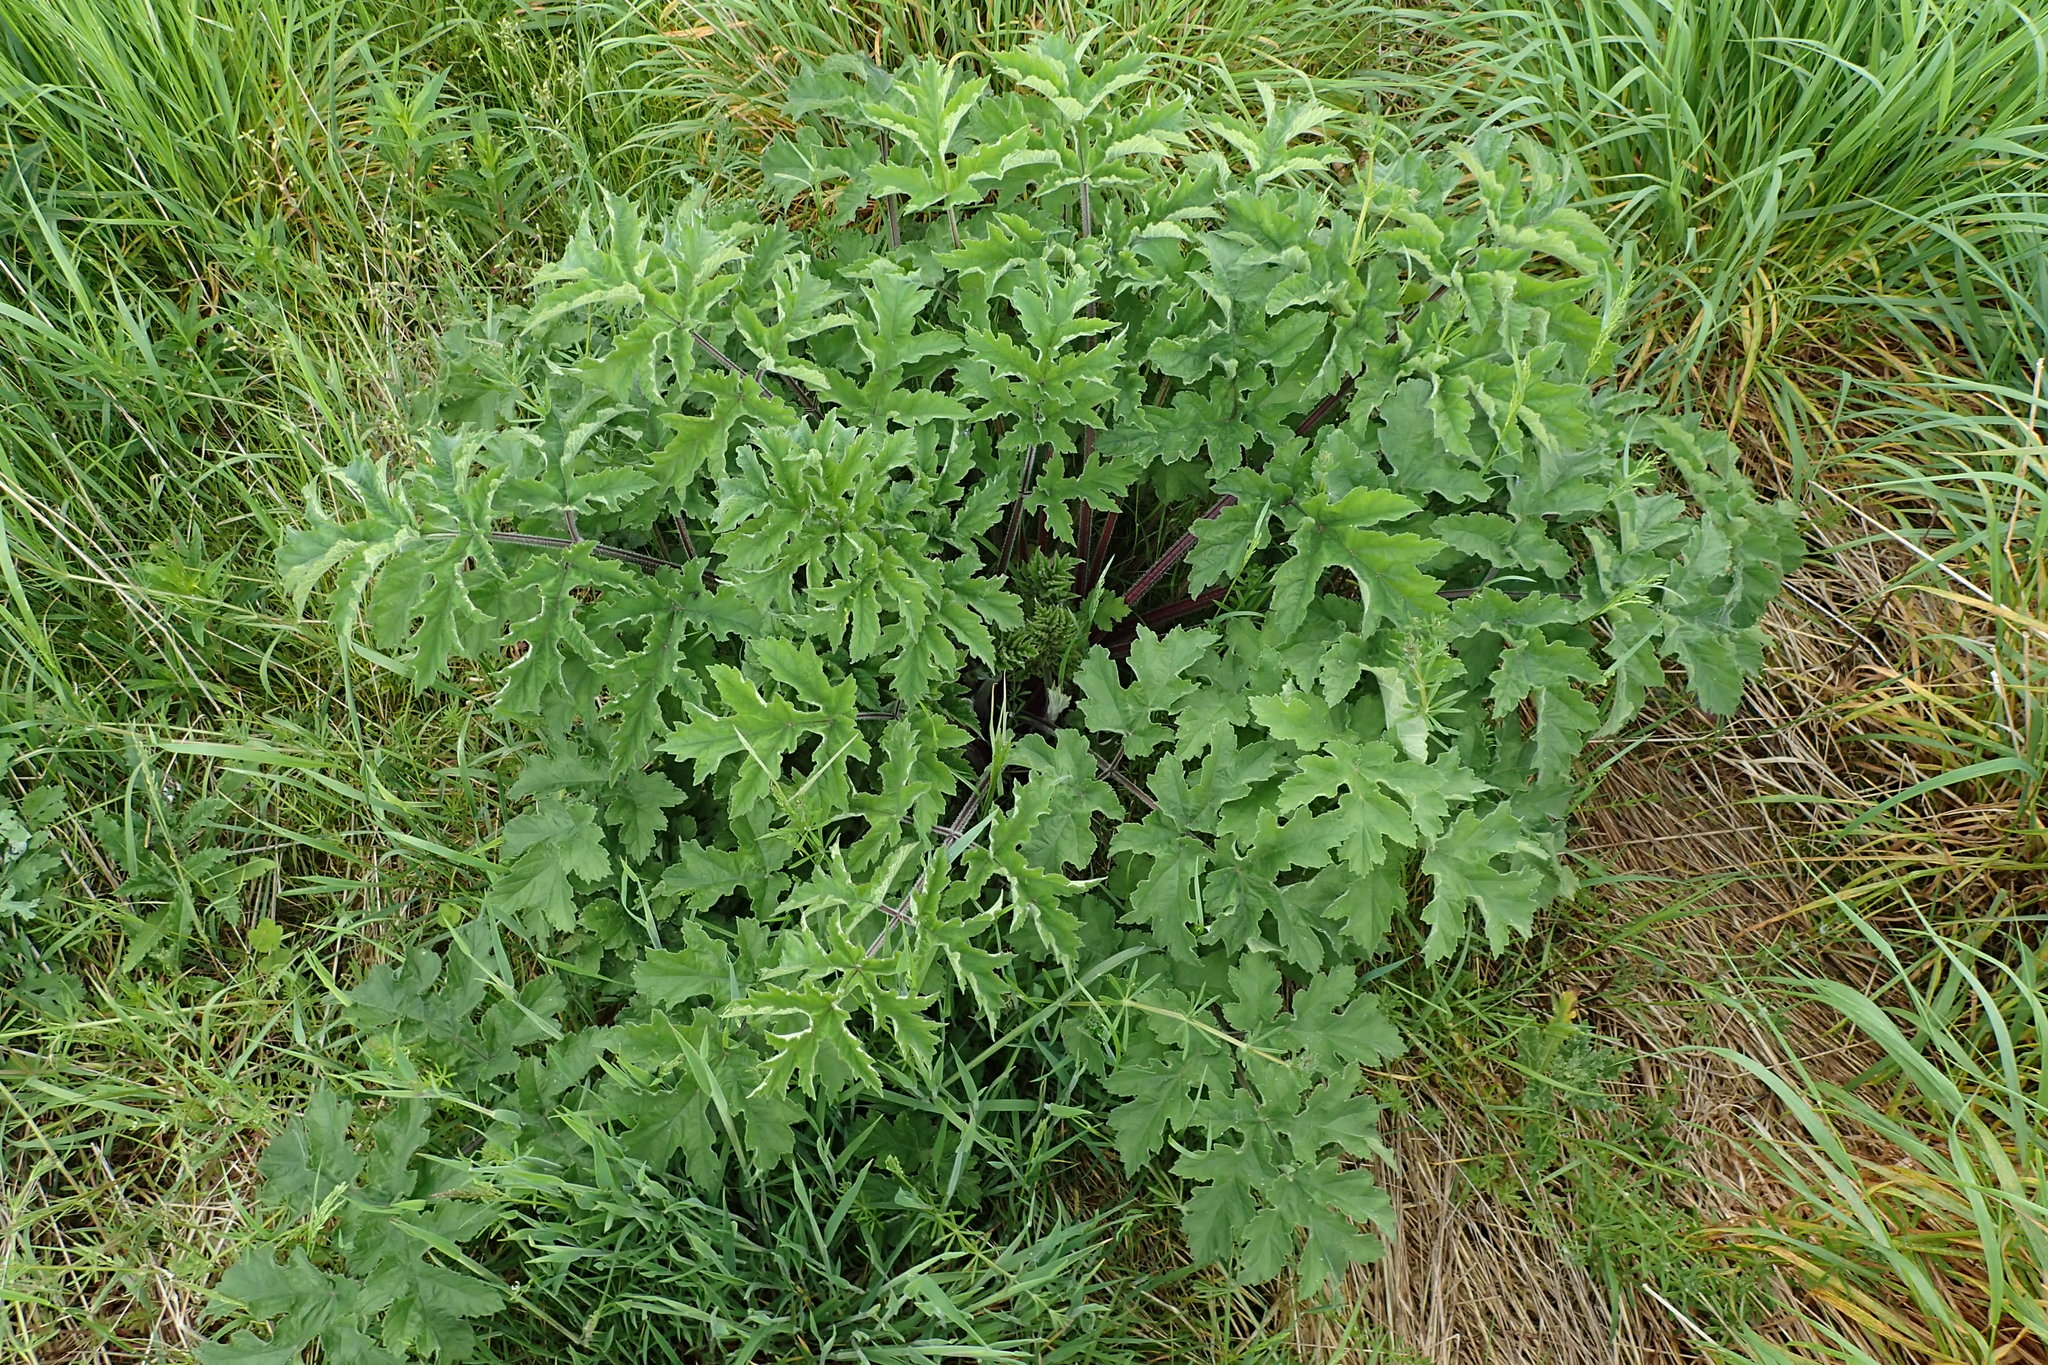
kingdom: Plantae
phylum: Tracheophyta
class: Magnoliopsida
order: Apiales
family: Apiaceae
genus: Heracleum
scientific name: Heracleum sphondylium
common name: Hogweed
